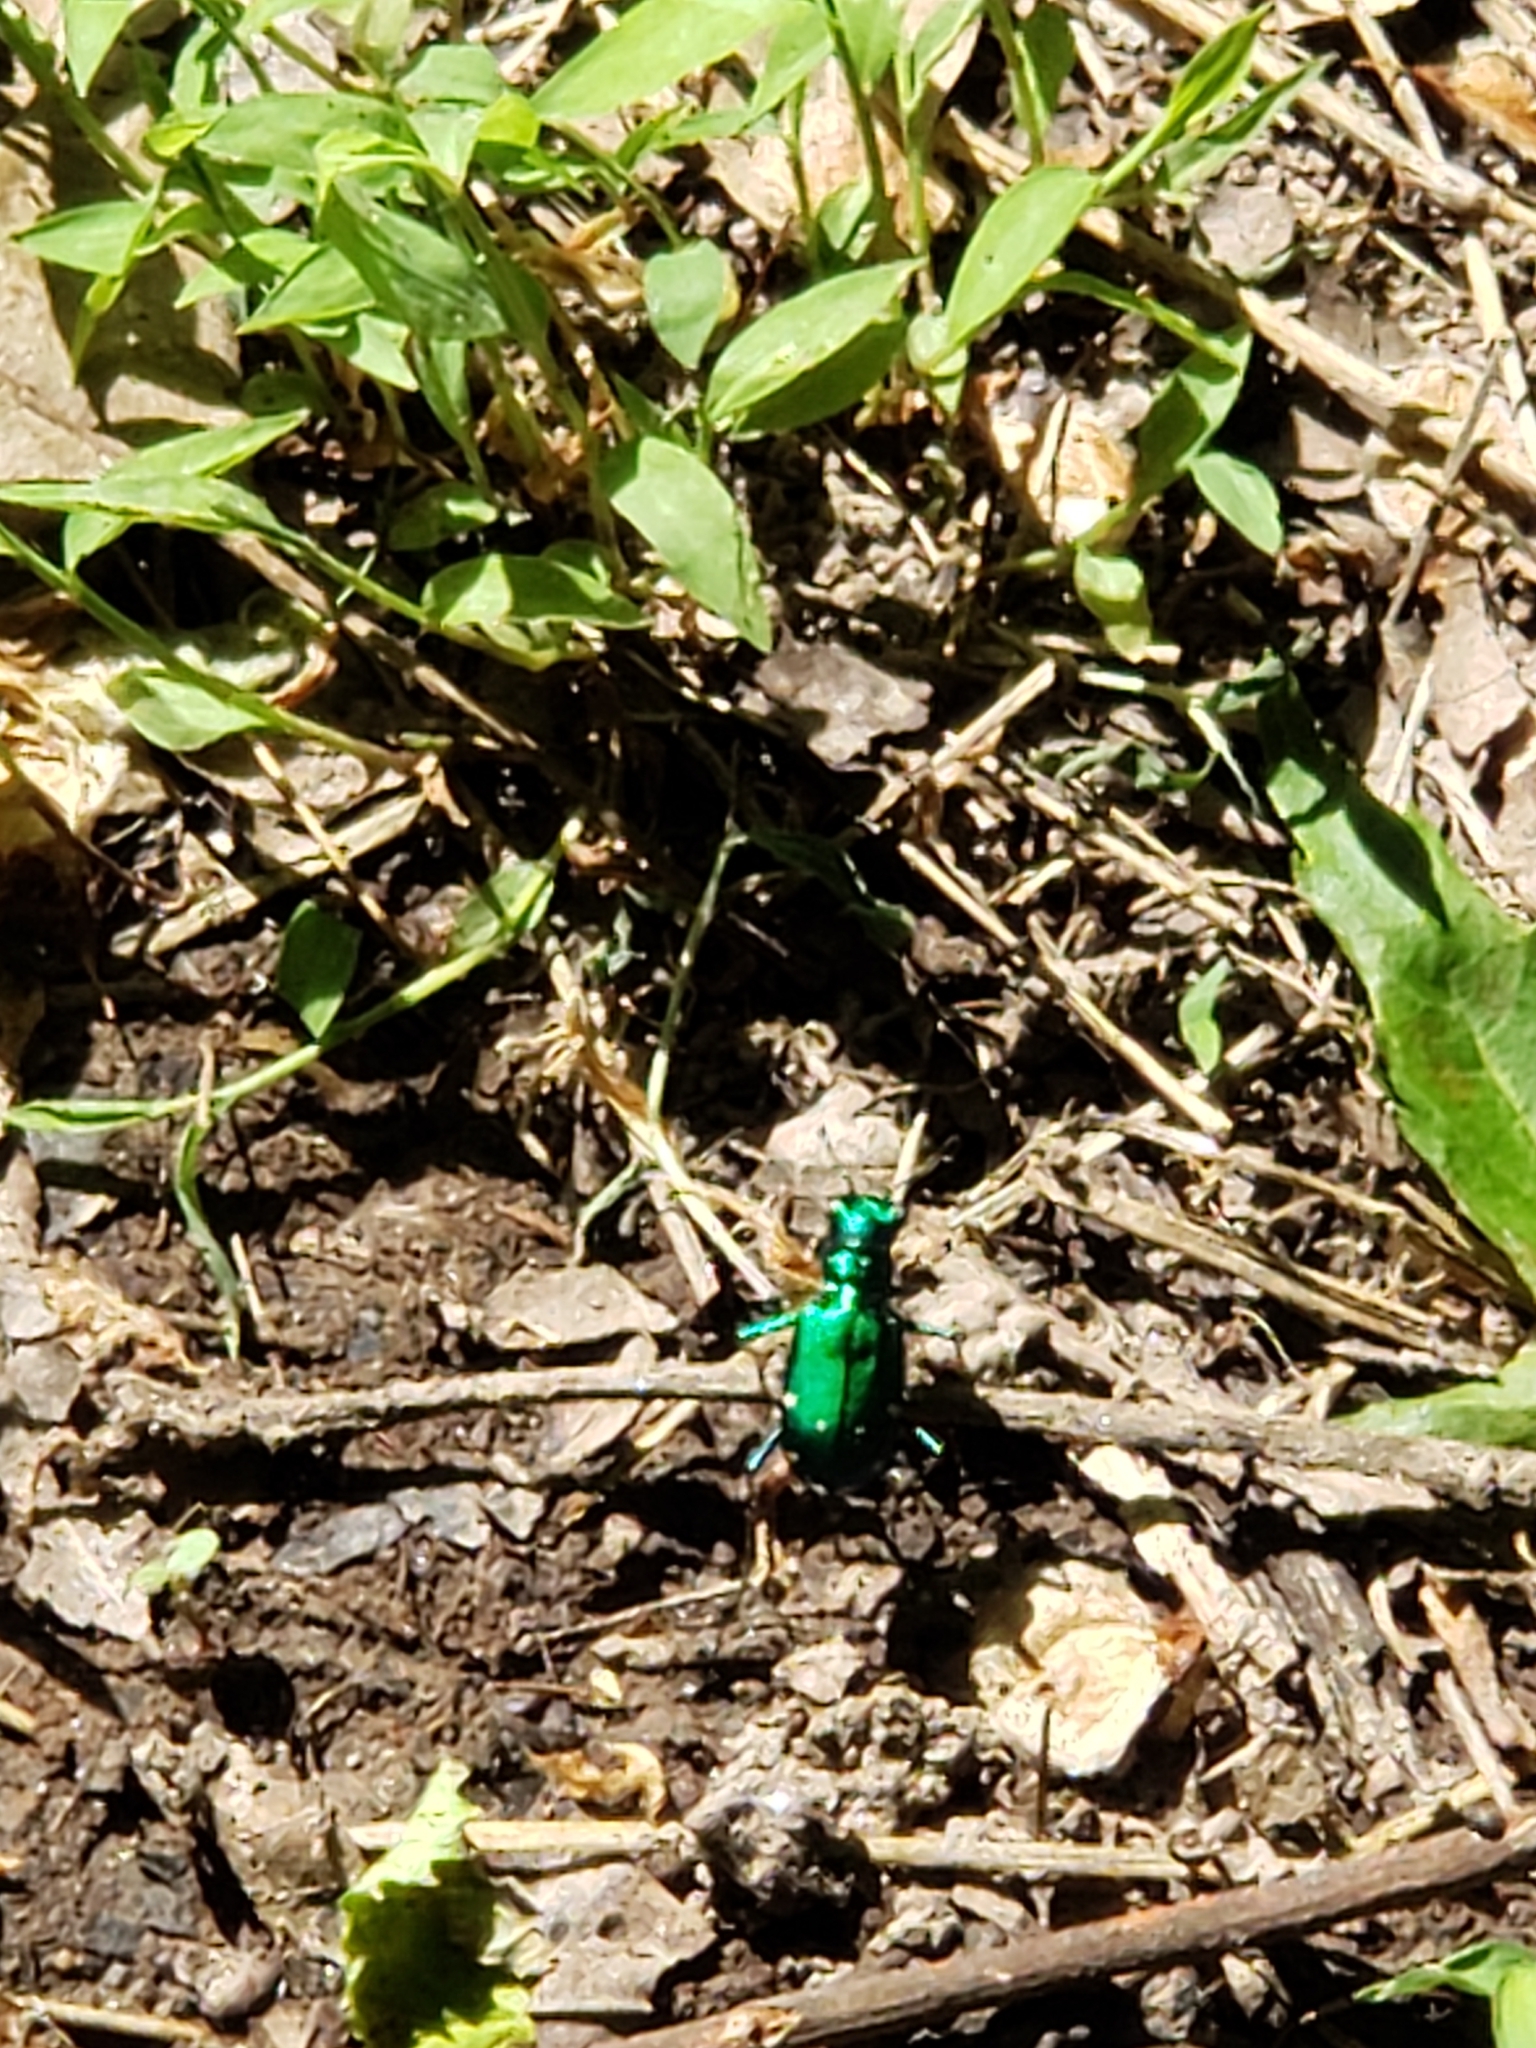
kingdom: Animalia
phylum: Arthropoda
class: Insecta
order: Coleoptera
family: Carabidae
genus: Cicindela
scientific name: Cicindela sexguttata
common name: Six-spotted tiger beetle
